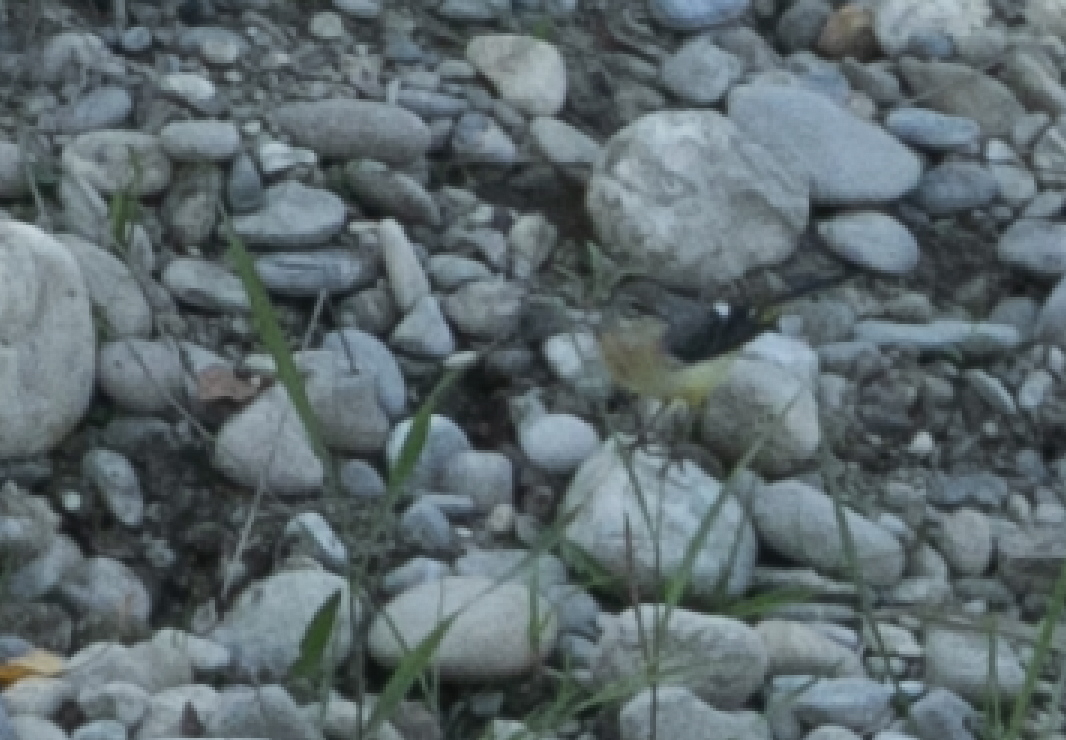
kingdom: Animalia
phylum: Chordata
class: Aves
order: Passeriformes
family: Motacillidae
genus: Motacilla
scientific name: Motacilla cinerea
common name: Grey wagtail
